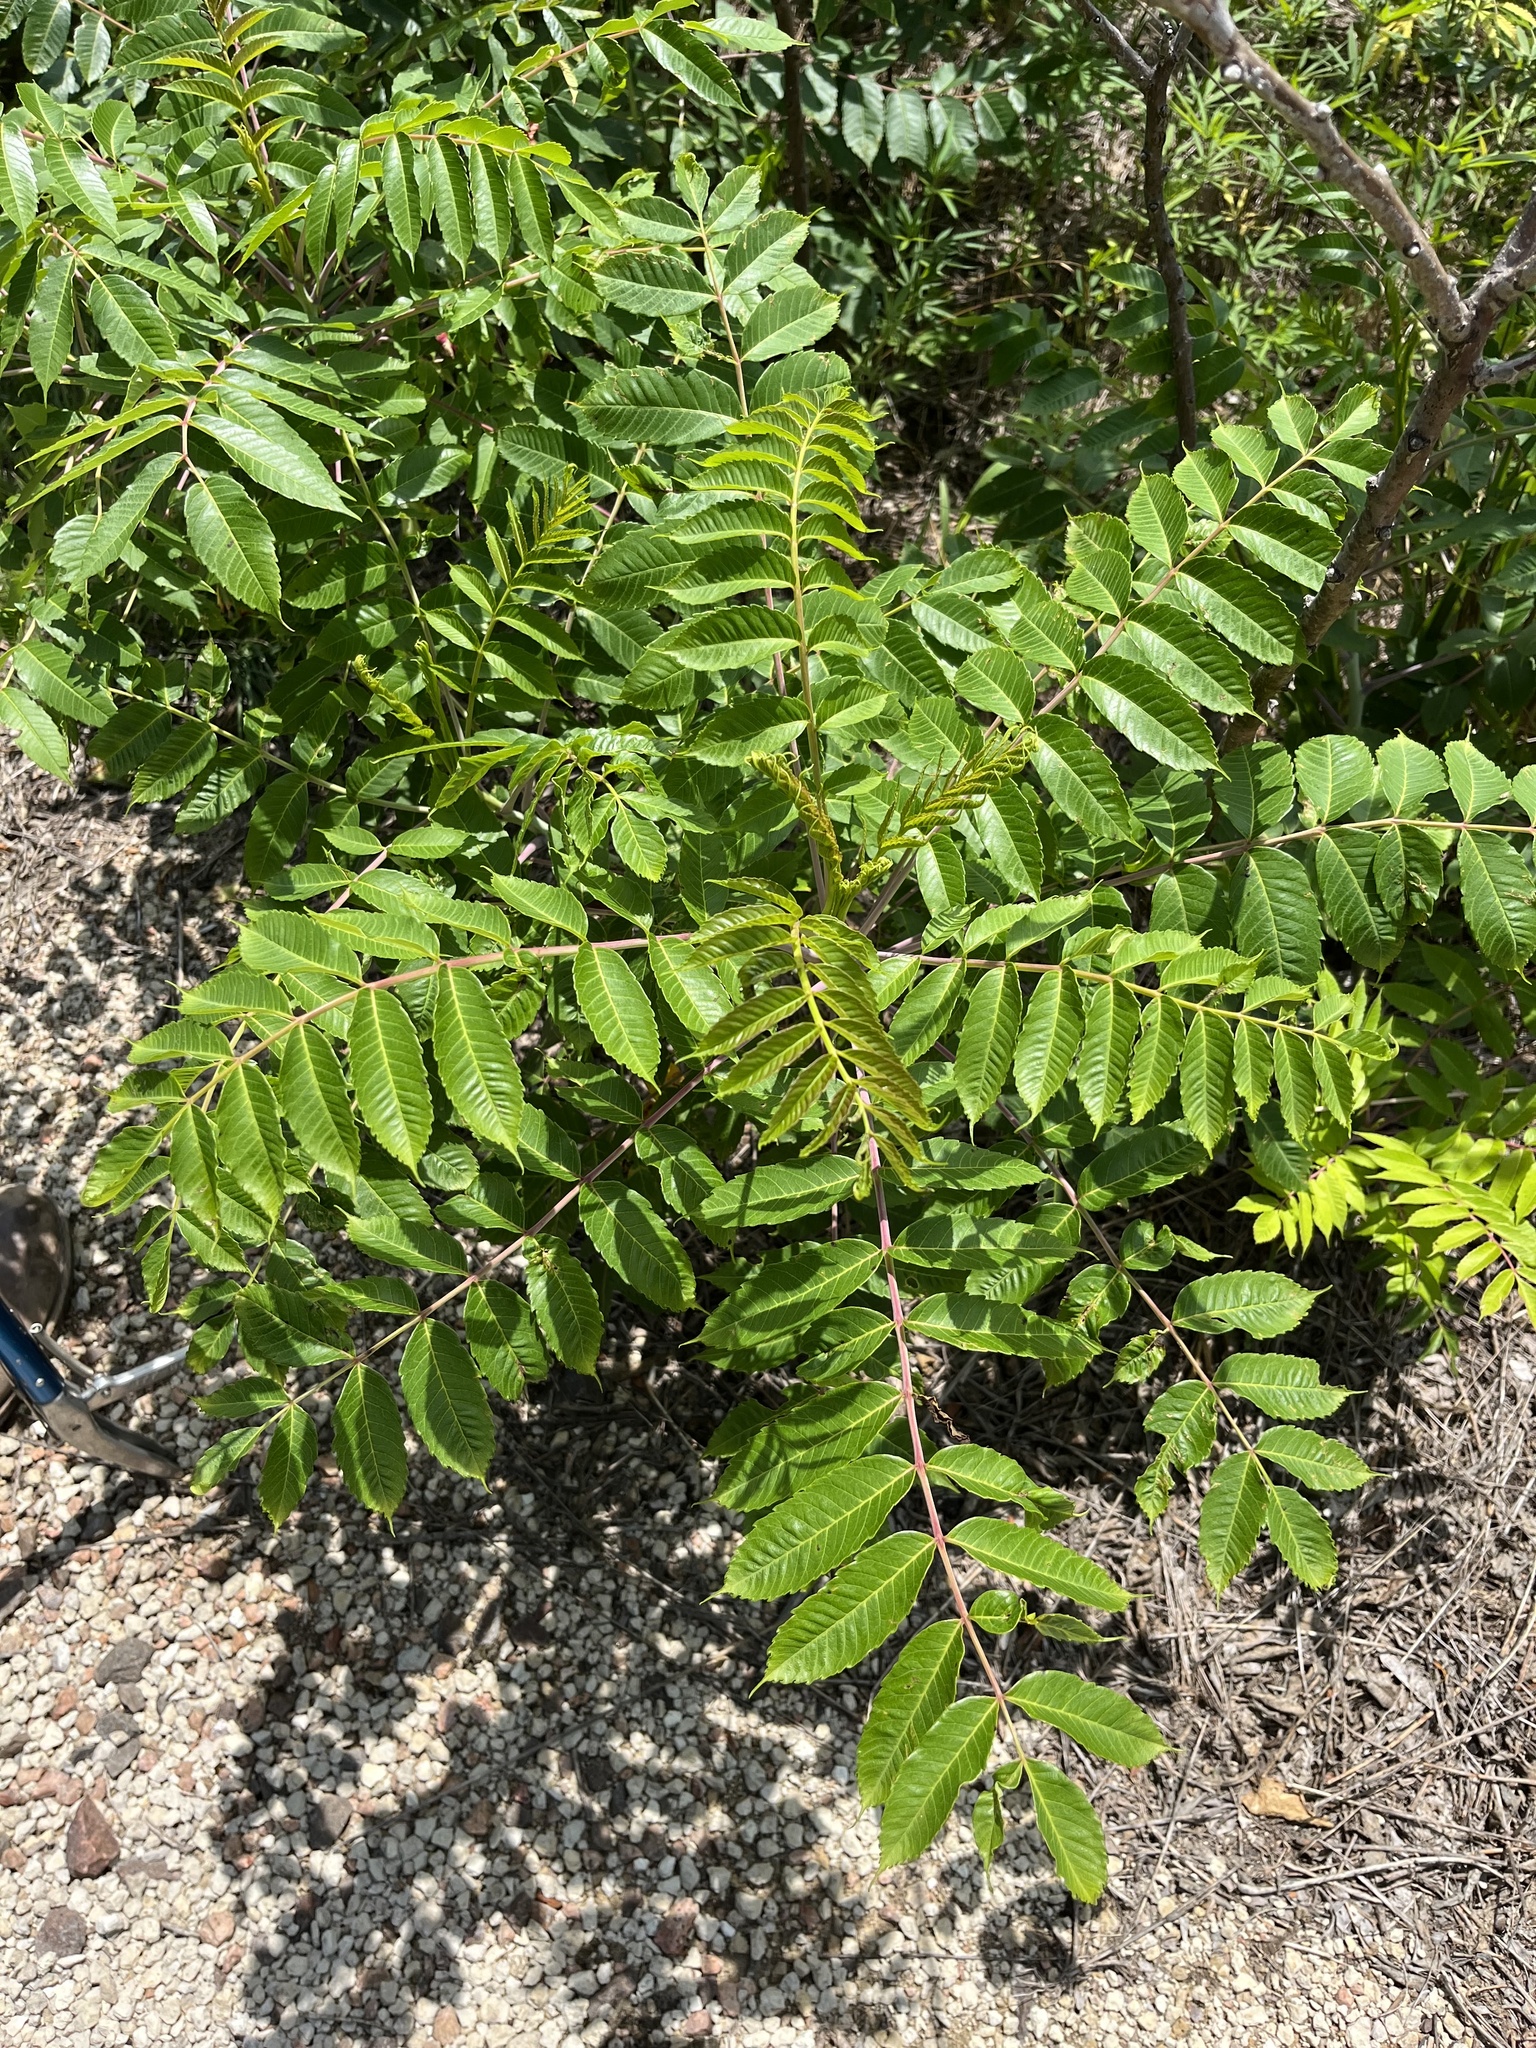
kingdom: Plantae
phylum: Tracheophyta
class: Magnoliopsida
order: Sapindales
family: Anacardiaceae
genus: Rhus
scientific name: Rhus glabra
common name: Scarlet sumac
